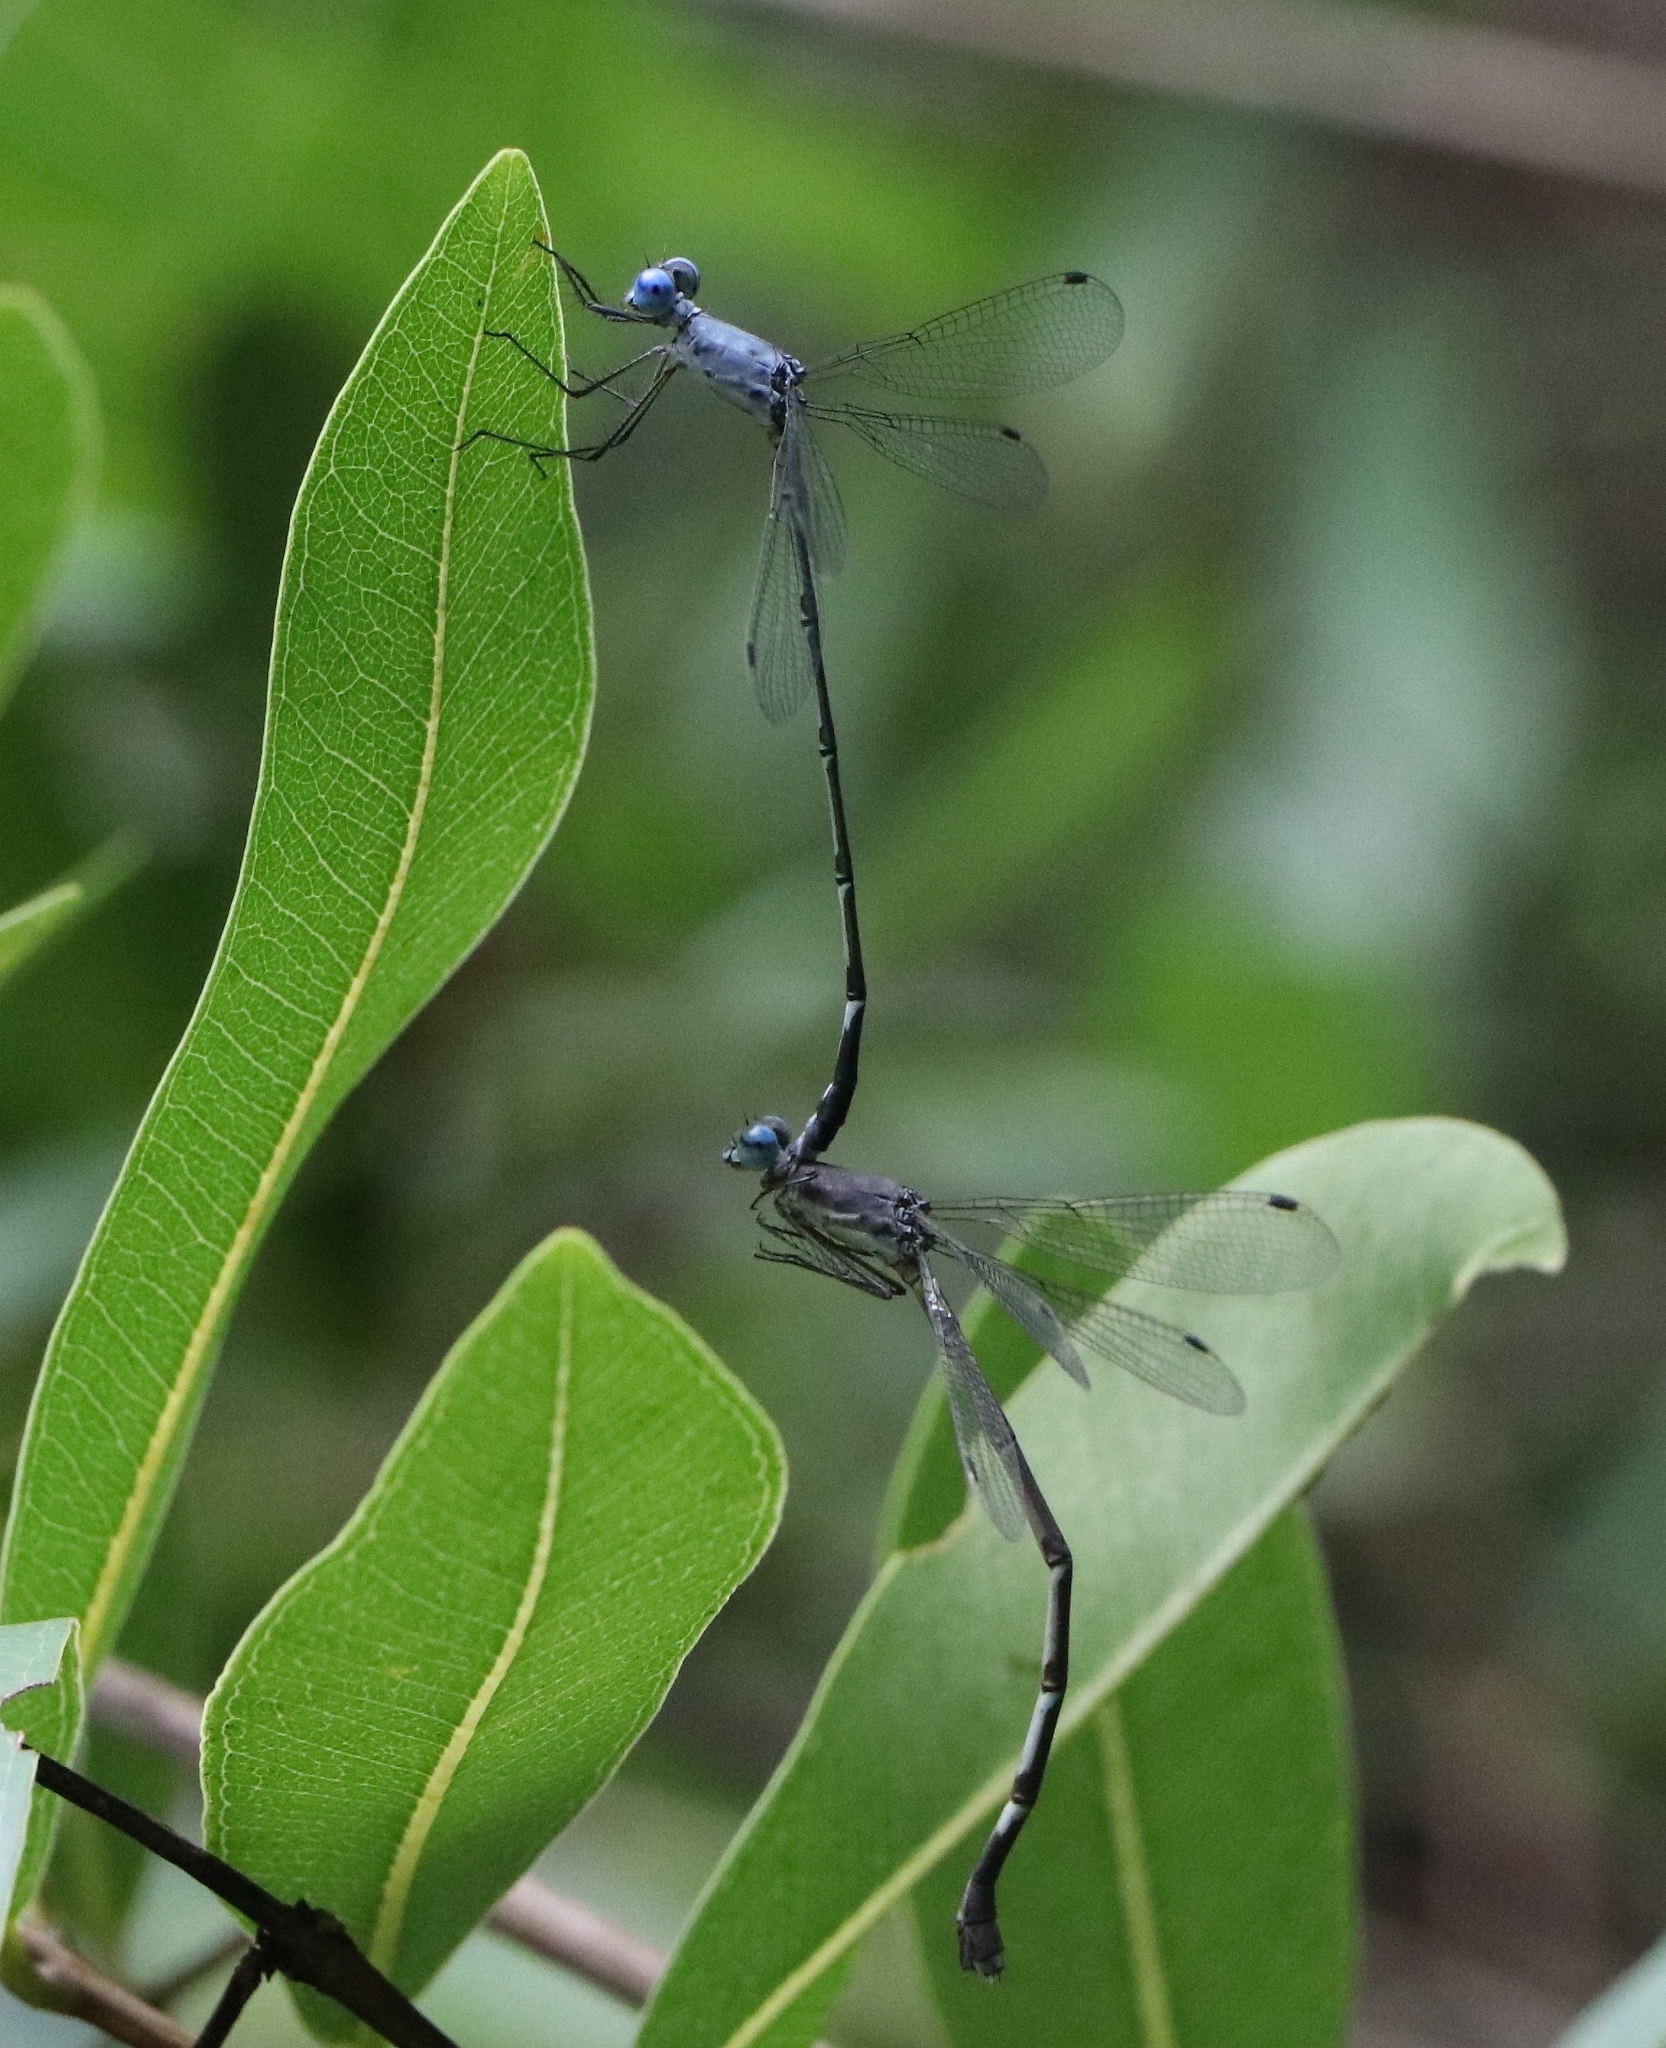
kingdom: Animalia
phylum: Arthropoda
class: Insecta
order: Odonata
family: Lestidae
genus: Lestes
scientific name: Lestes dorothea
